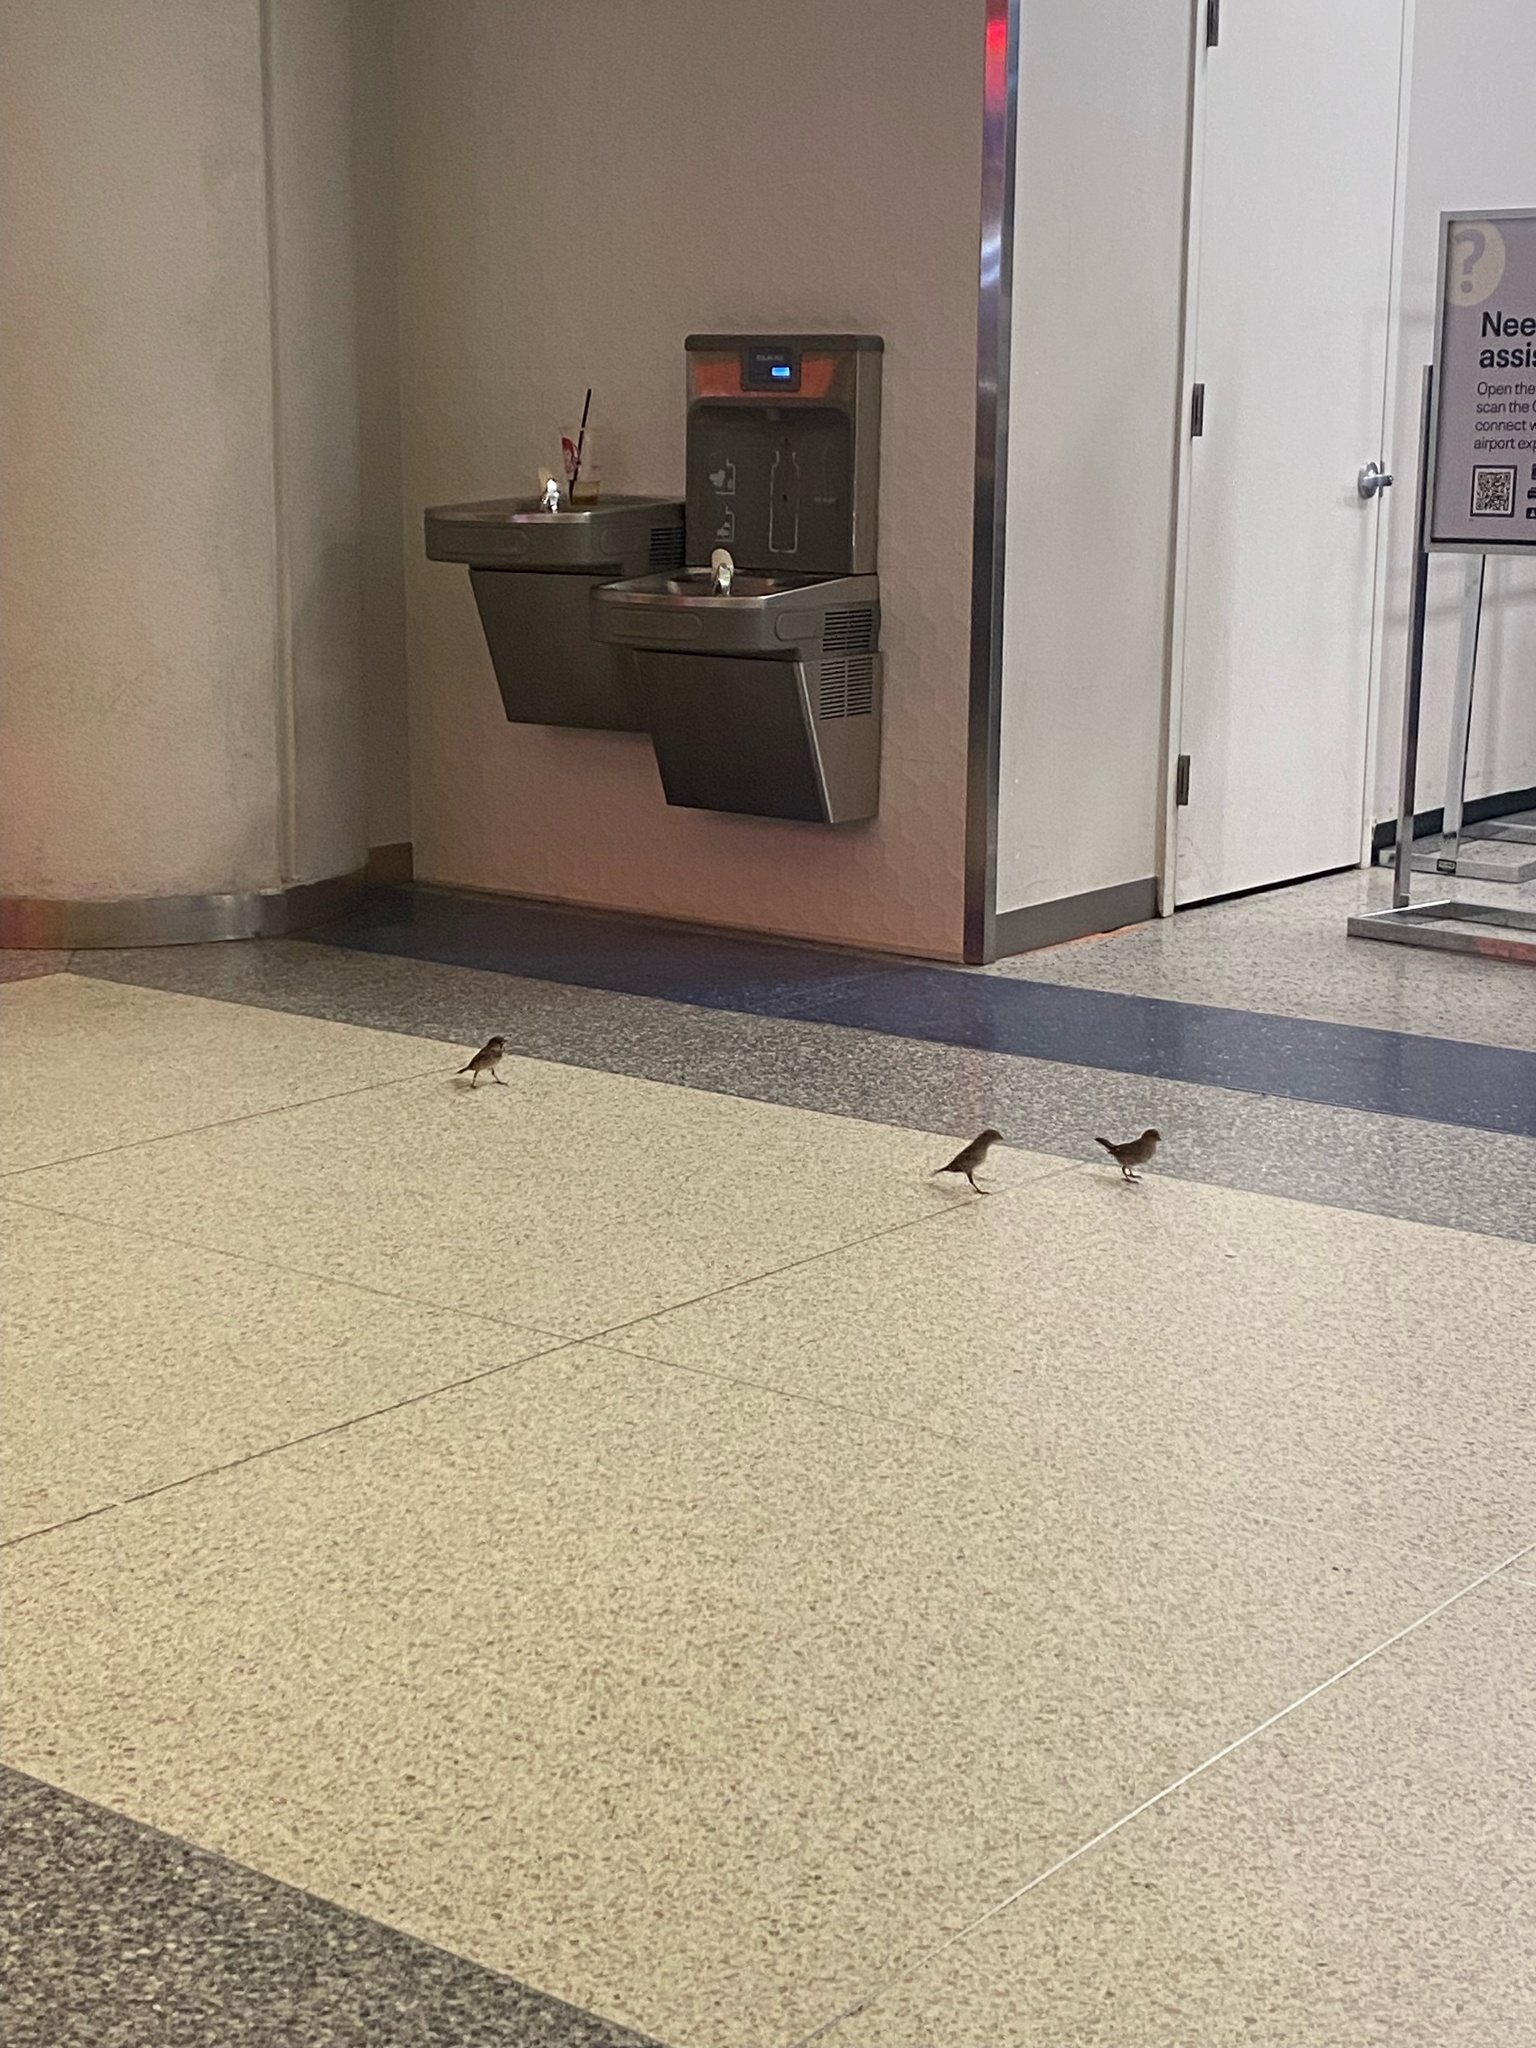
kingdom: Animalia
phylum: Chordata
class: Aves
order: Passeriformes
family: Passeridae
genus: Passer
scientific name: Passer domesticus
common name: House sparrow
